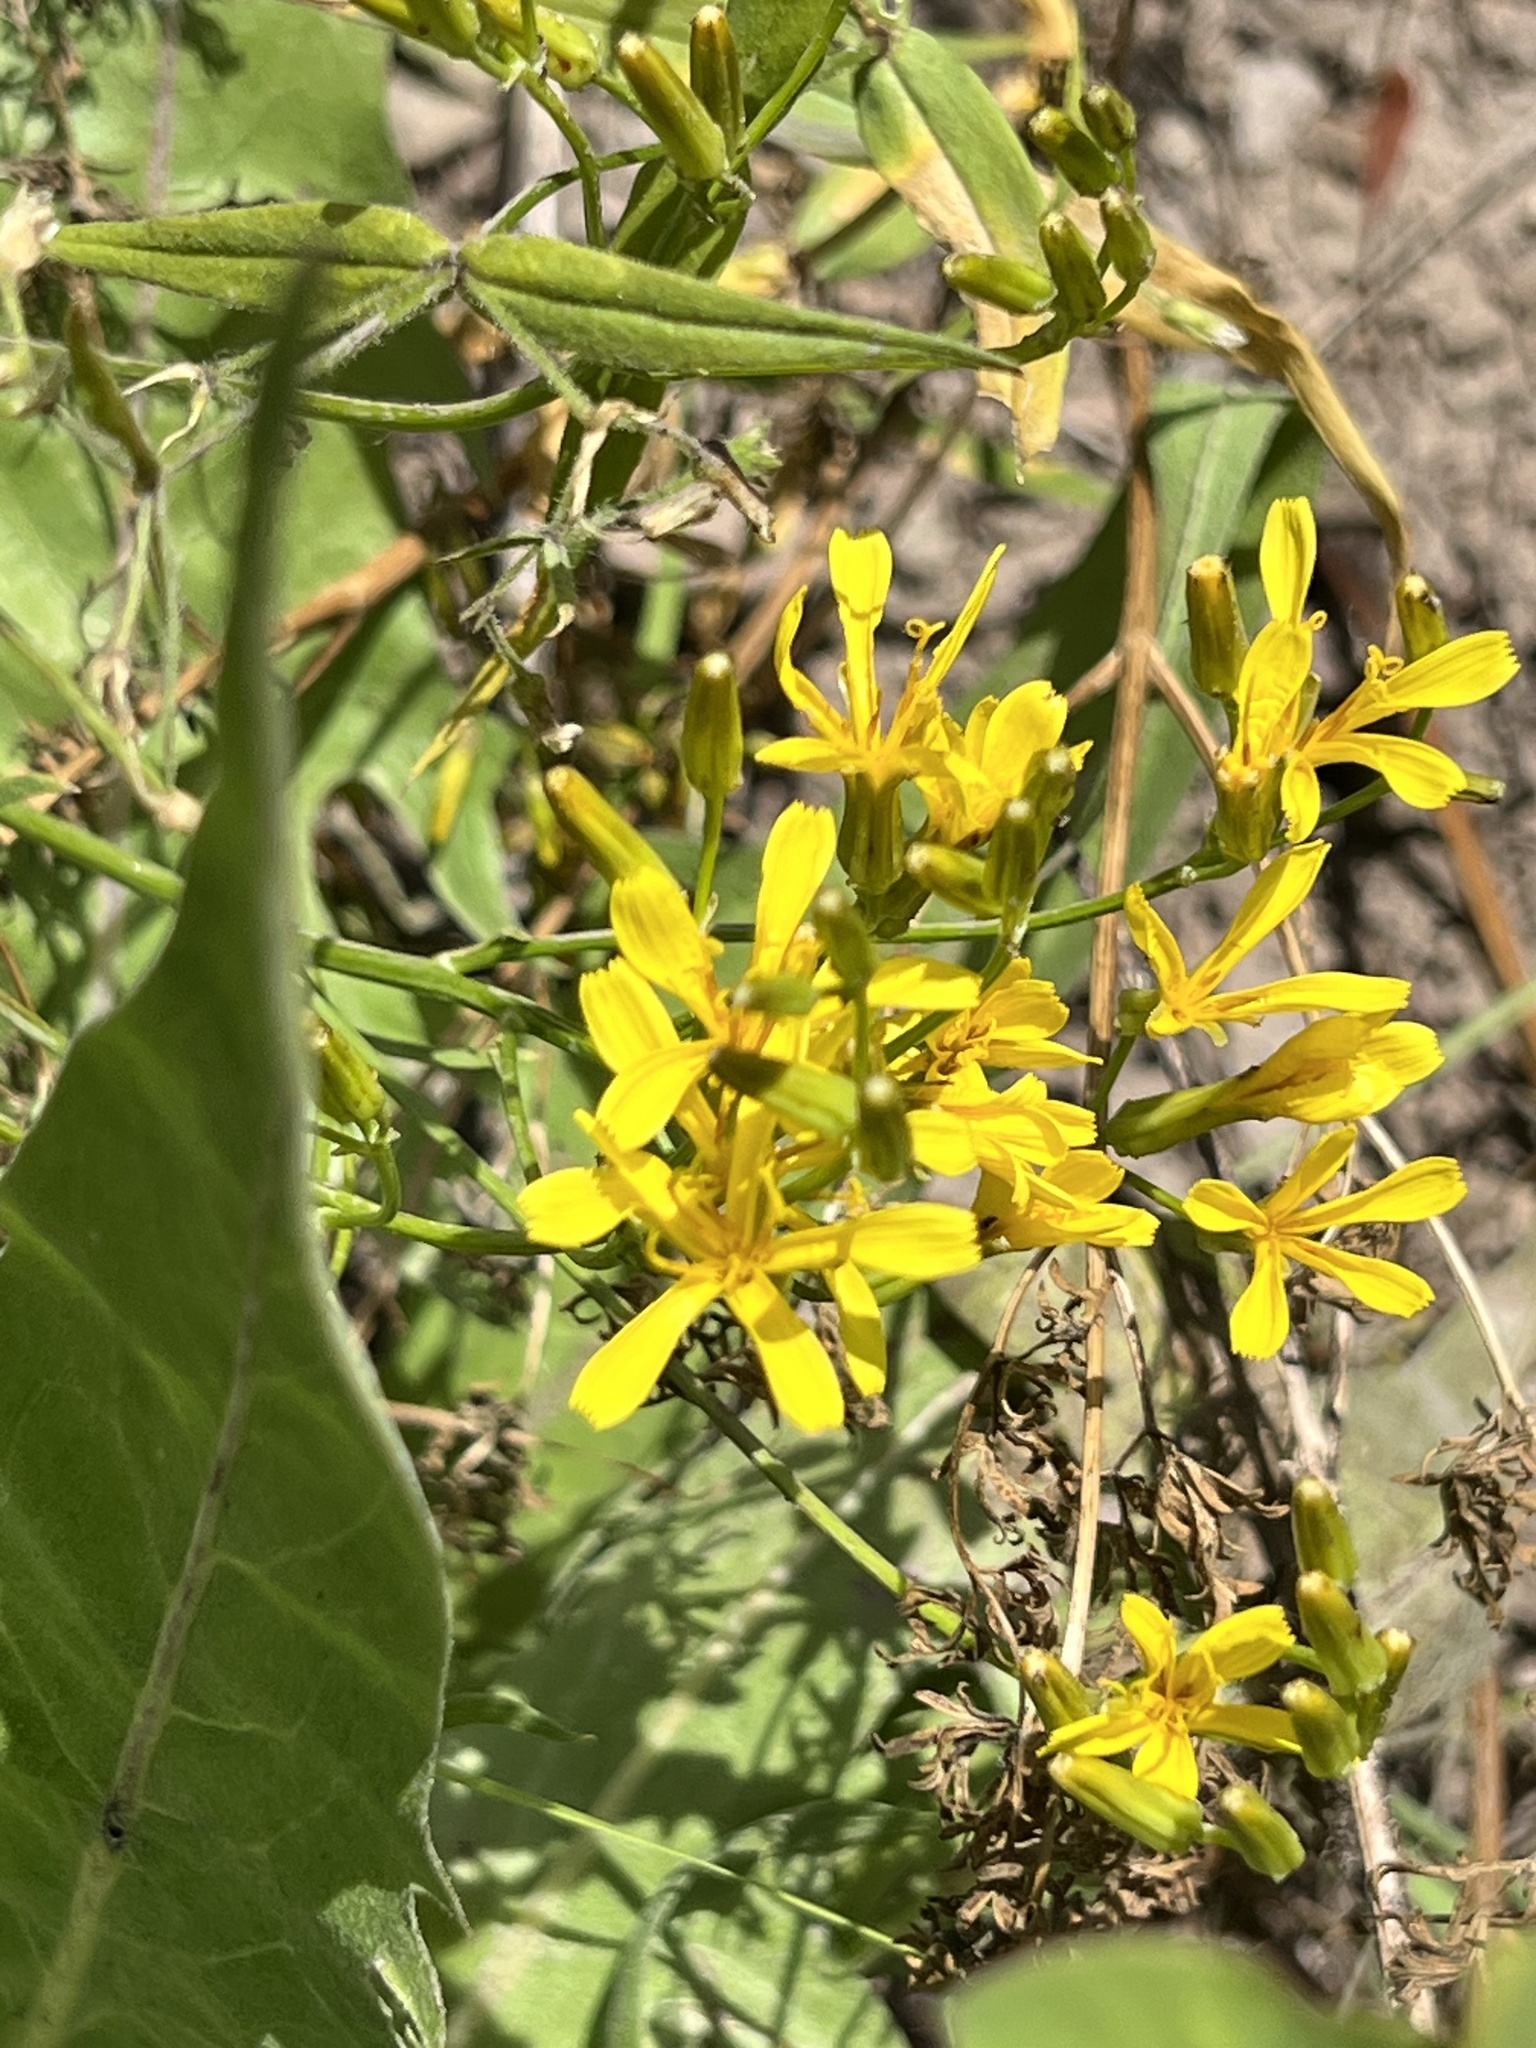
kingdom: Plantae
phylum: Tracheophyta
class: Magnoliopsida
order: Asterales
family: Asteraceae
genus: Crepis
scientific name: Crepis acuminata
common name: Longleaf hawk's-beard
